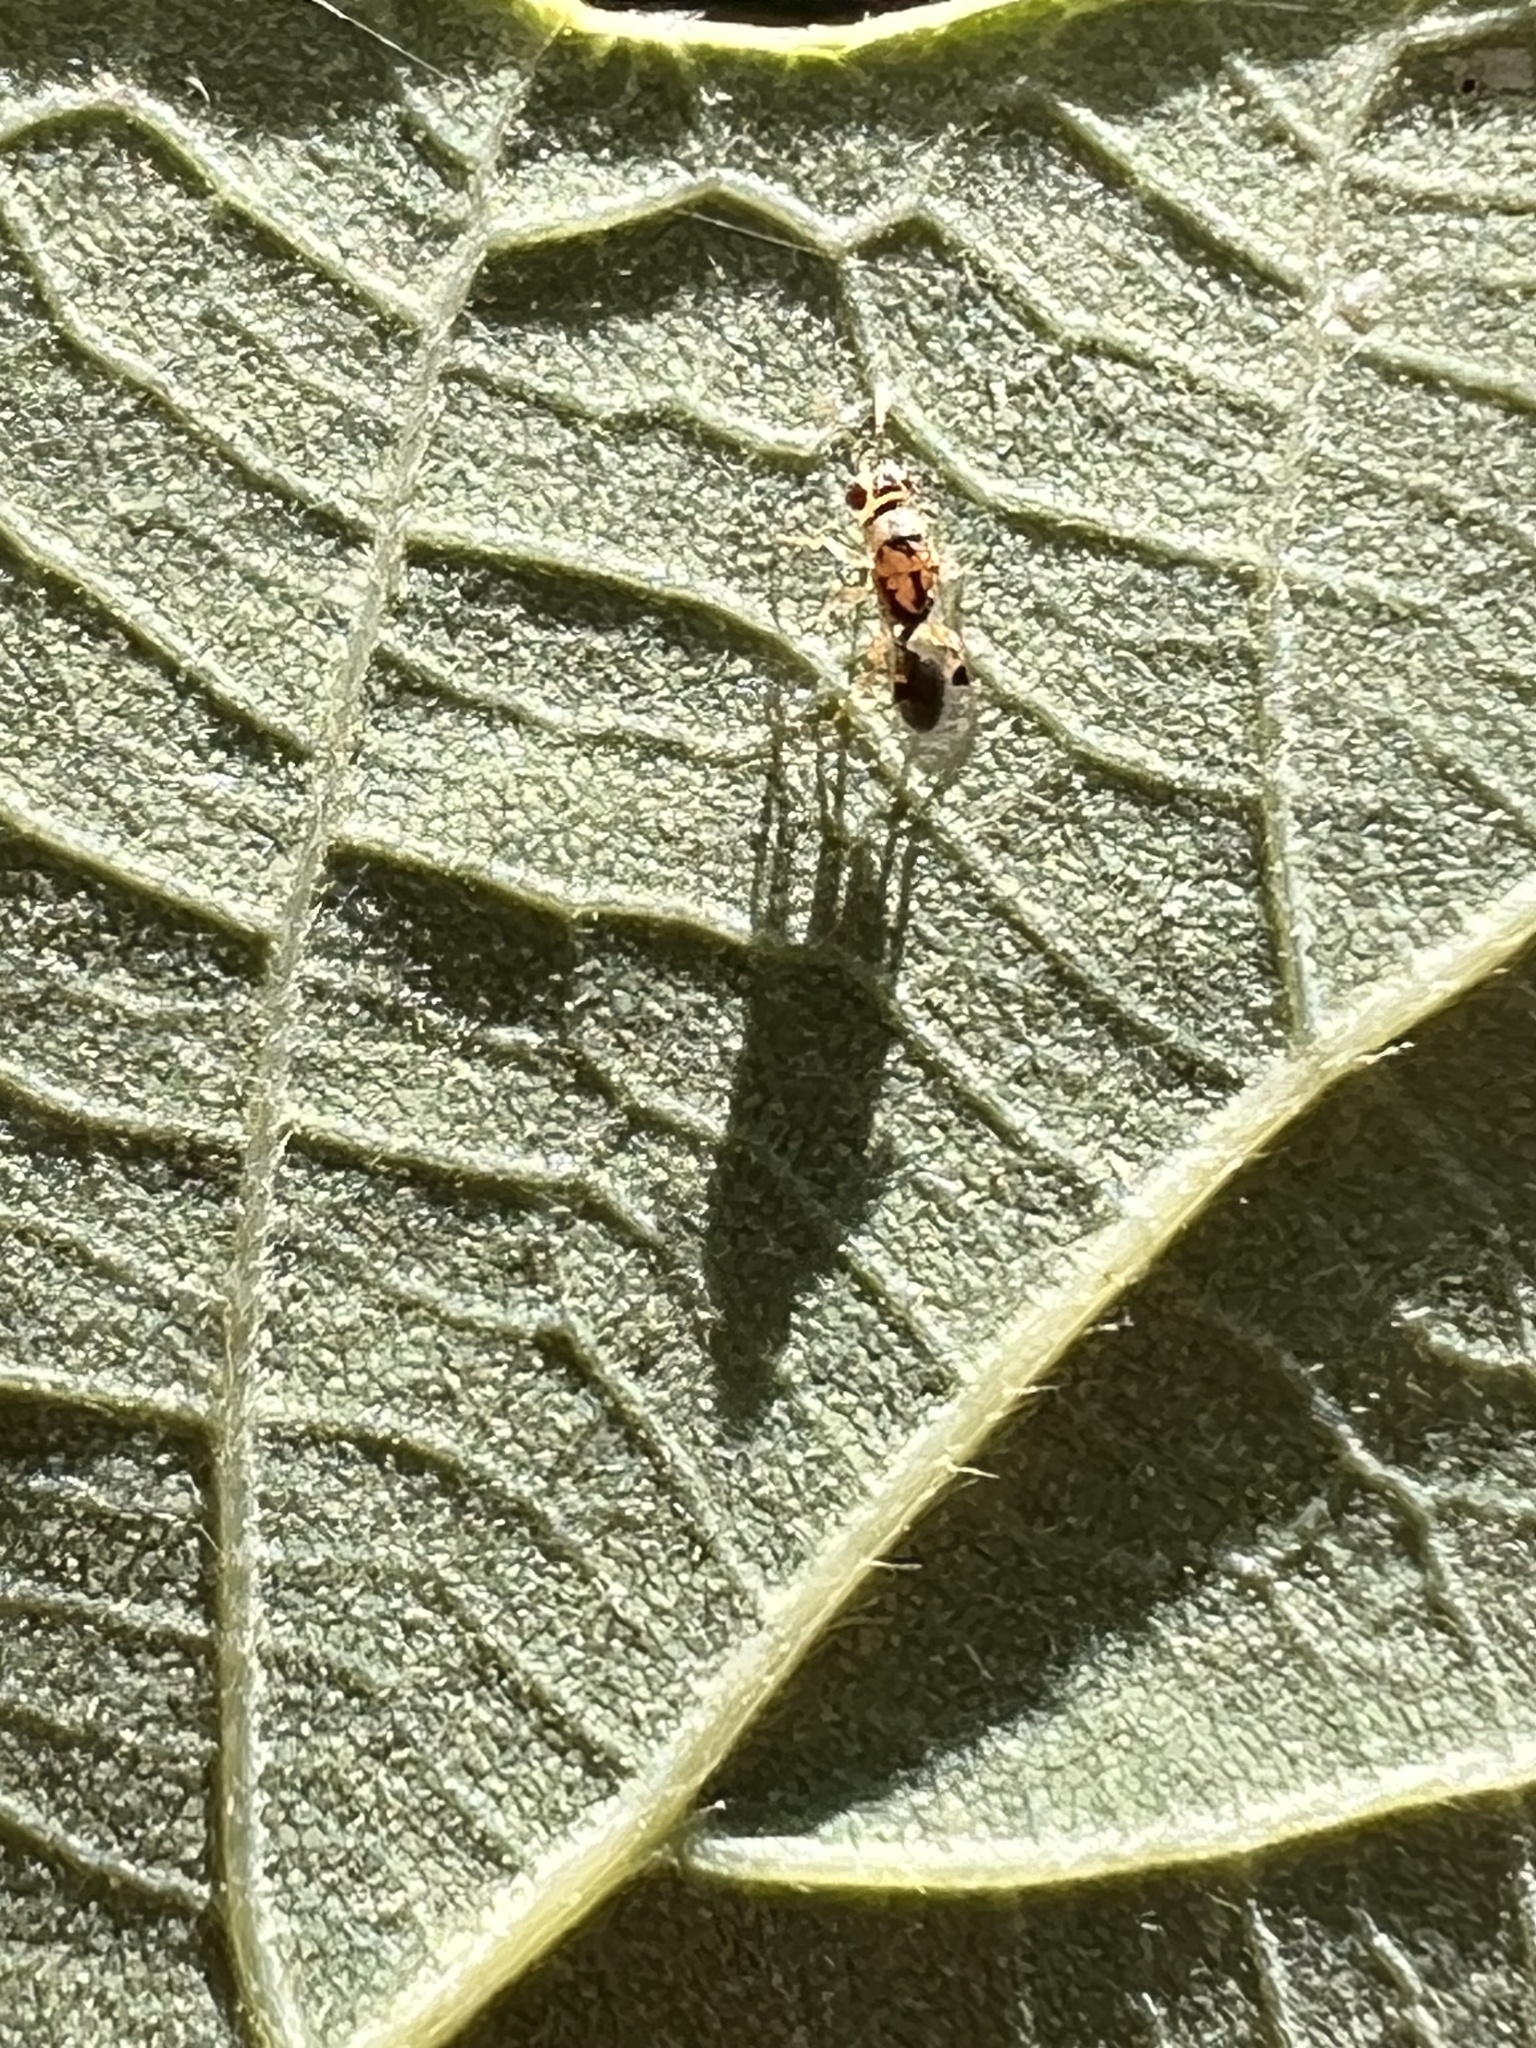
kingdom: Animalia
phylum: Arthropoda
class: Insecta
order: Hymenoptera
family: Eurytomidae
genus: Sycophila
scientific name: Sycophila
